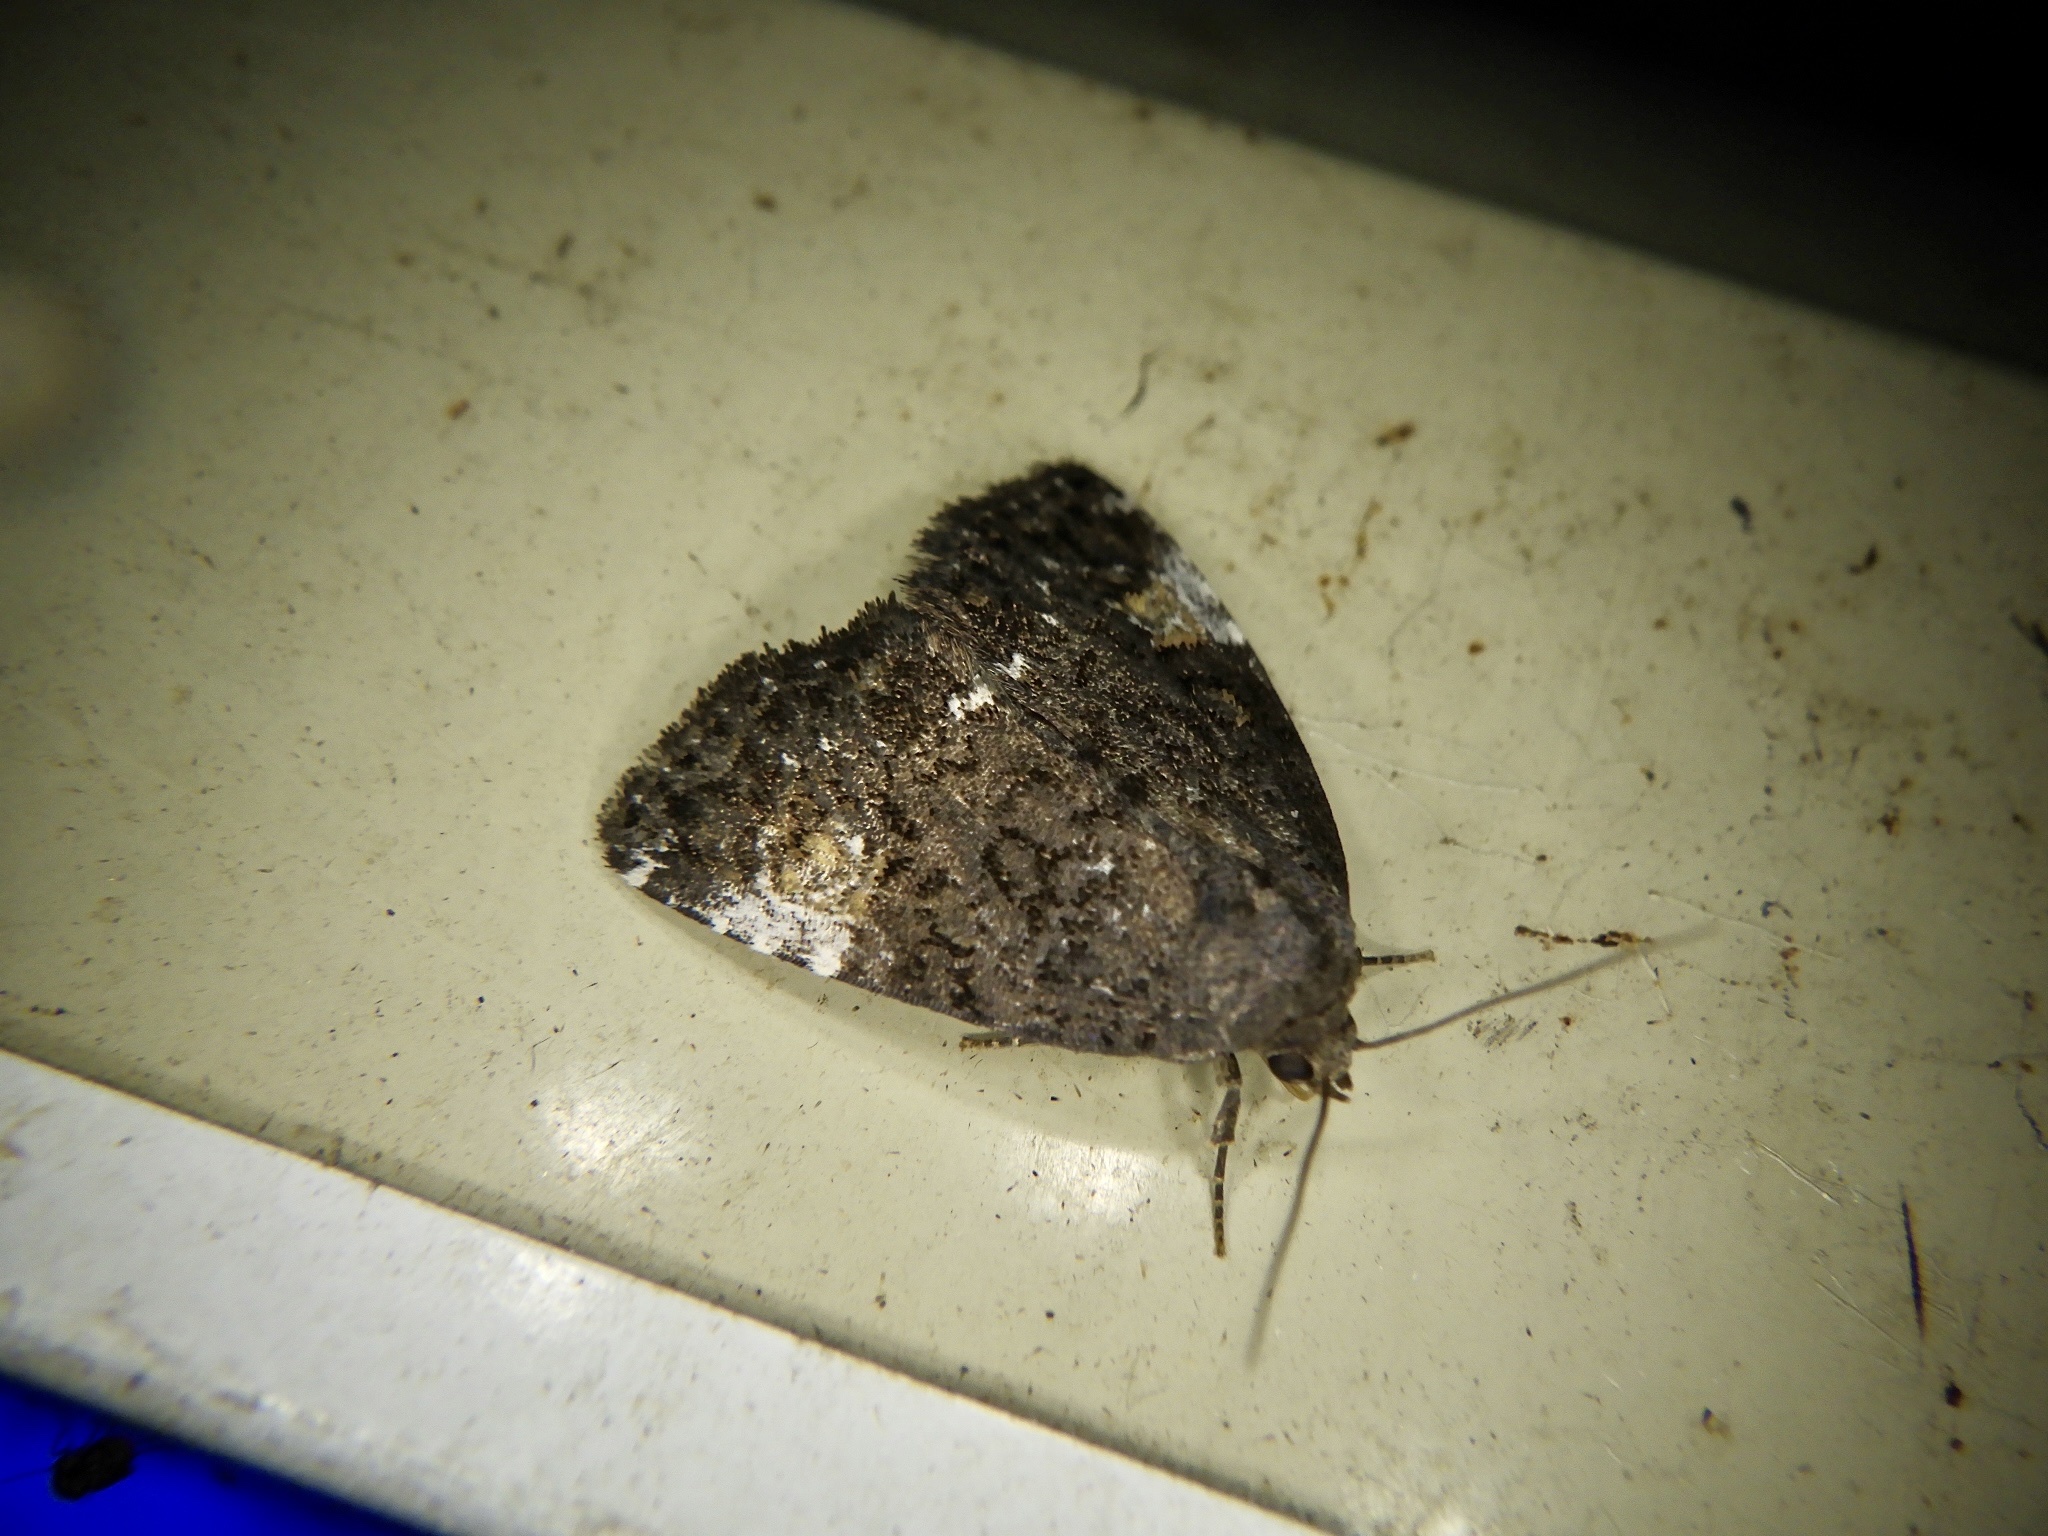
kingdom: Animalia
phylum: Arthropoda
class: Insecta
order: Lepidoptera
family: Noctuidae
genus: Anterastria
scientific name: Anterastria atrata
